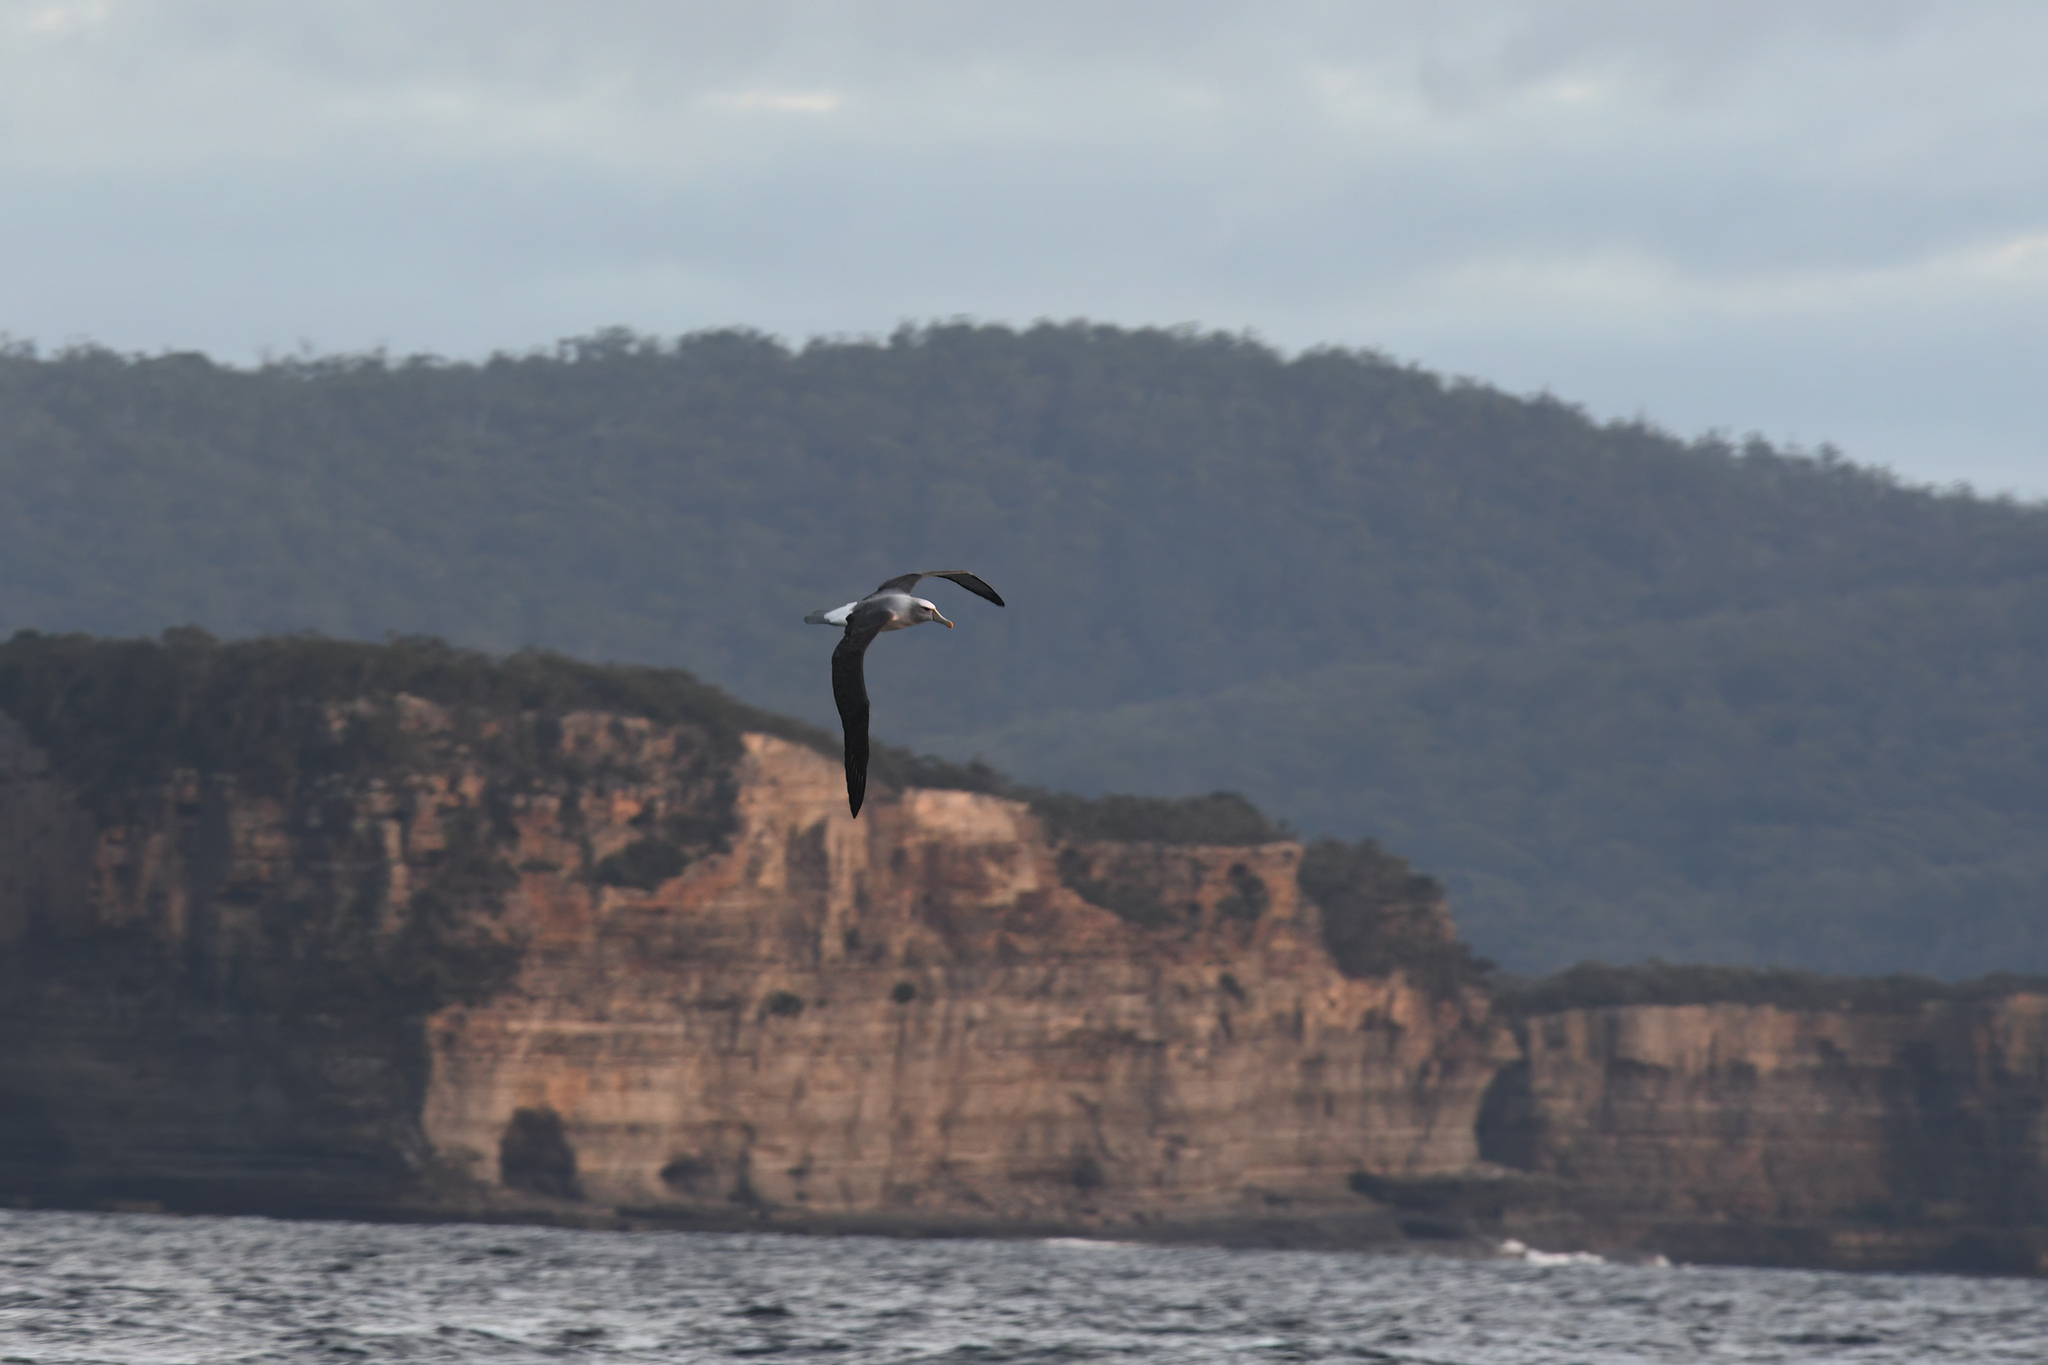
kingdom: Animalia
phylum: Chordata
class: Aves
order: Procellariiformes
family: Diomedeidae
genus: Thalassarche
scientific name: Thalassarche cauta
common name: Shy albatross
